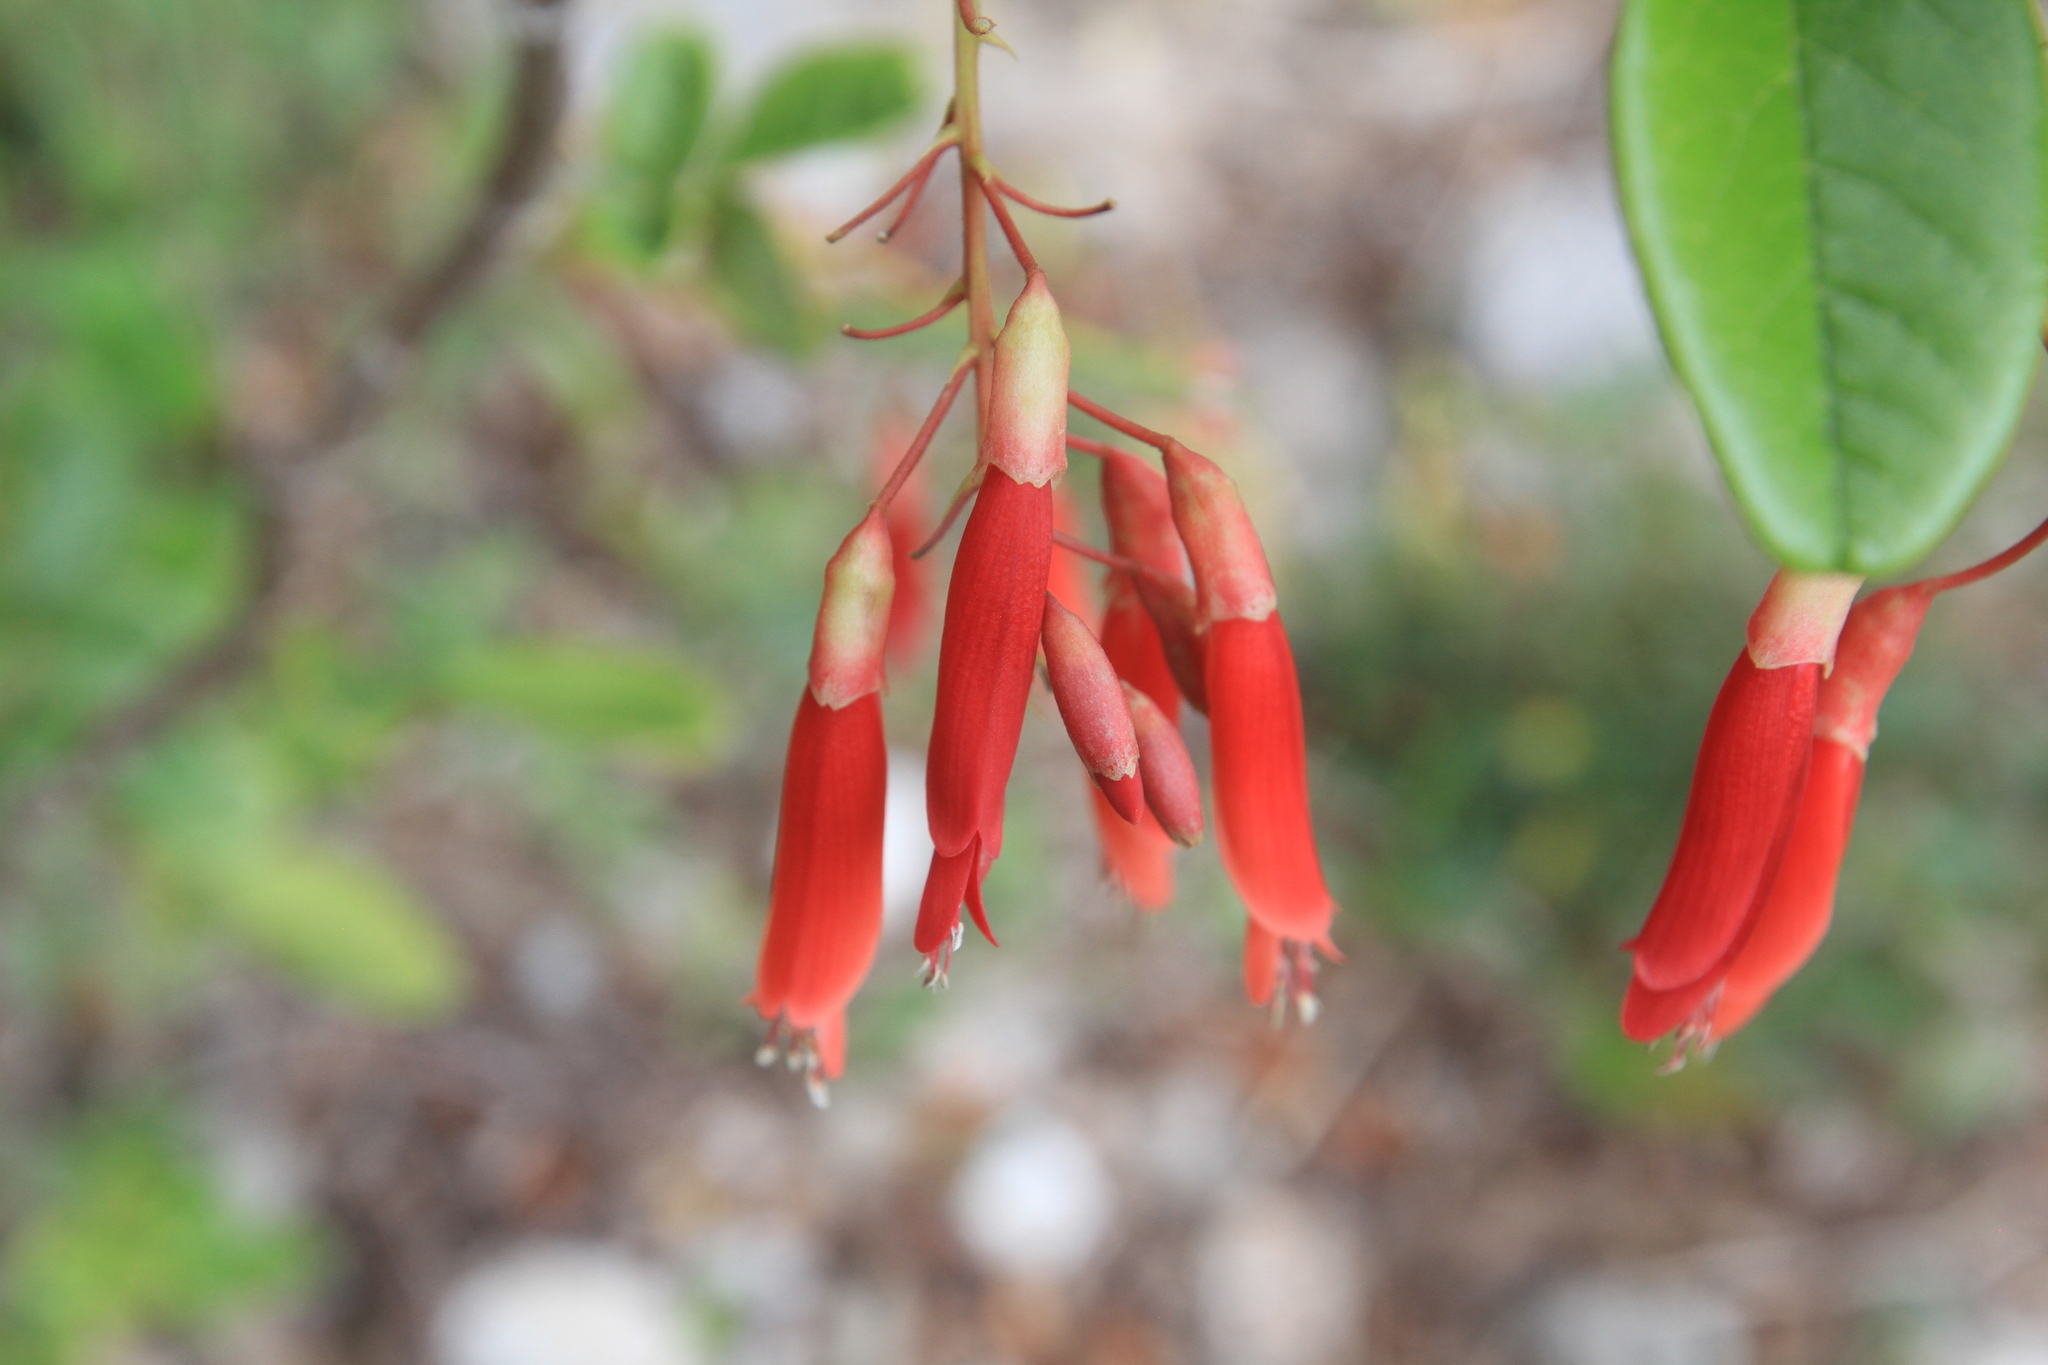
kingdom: Plantae
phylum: Tracheophyta
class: Magnoliopsida
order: Fabales
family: Fabaceae
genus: Poitea
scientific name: Poitea multiflora
